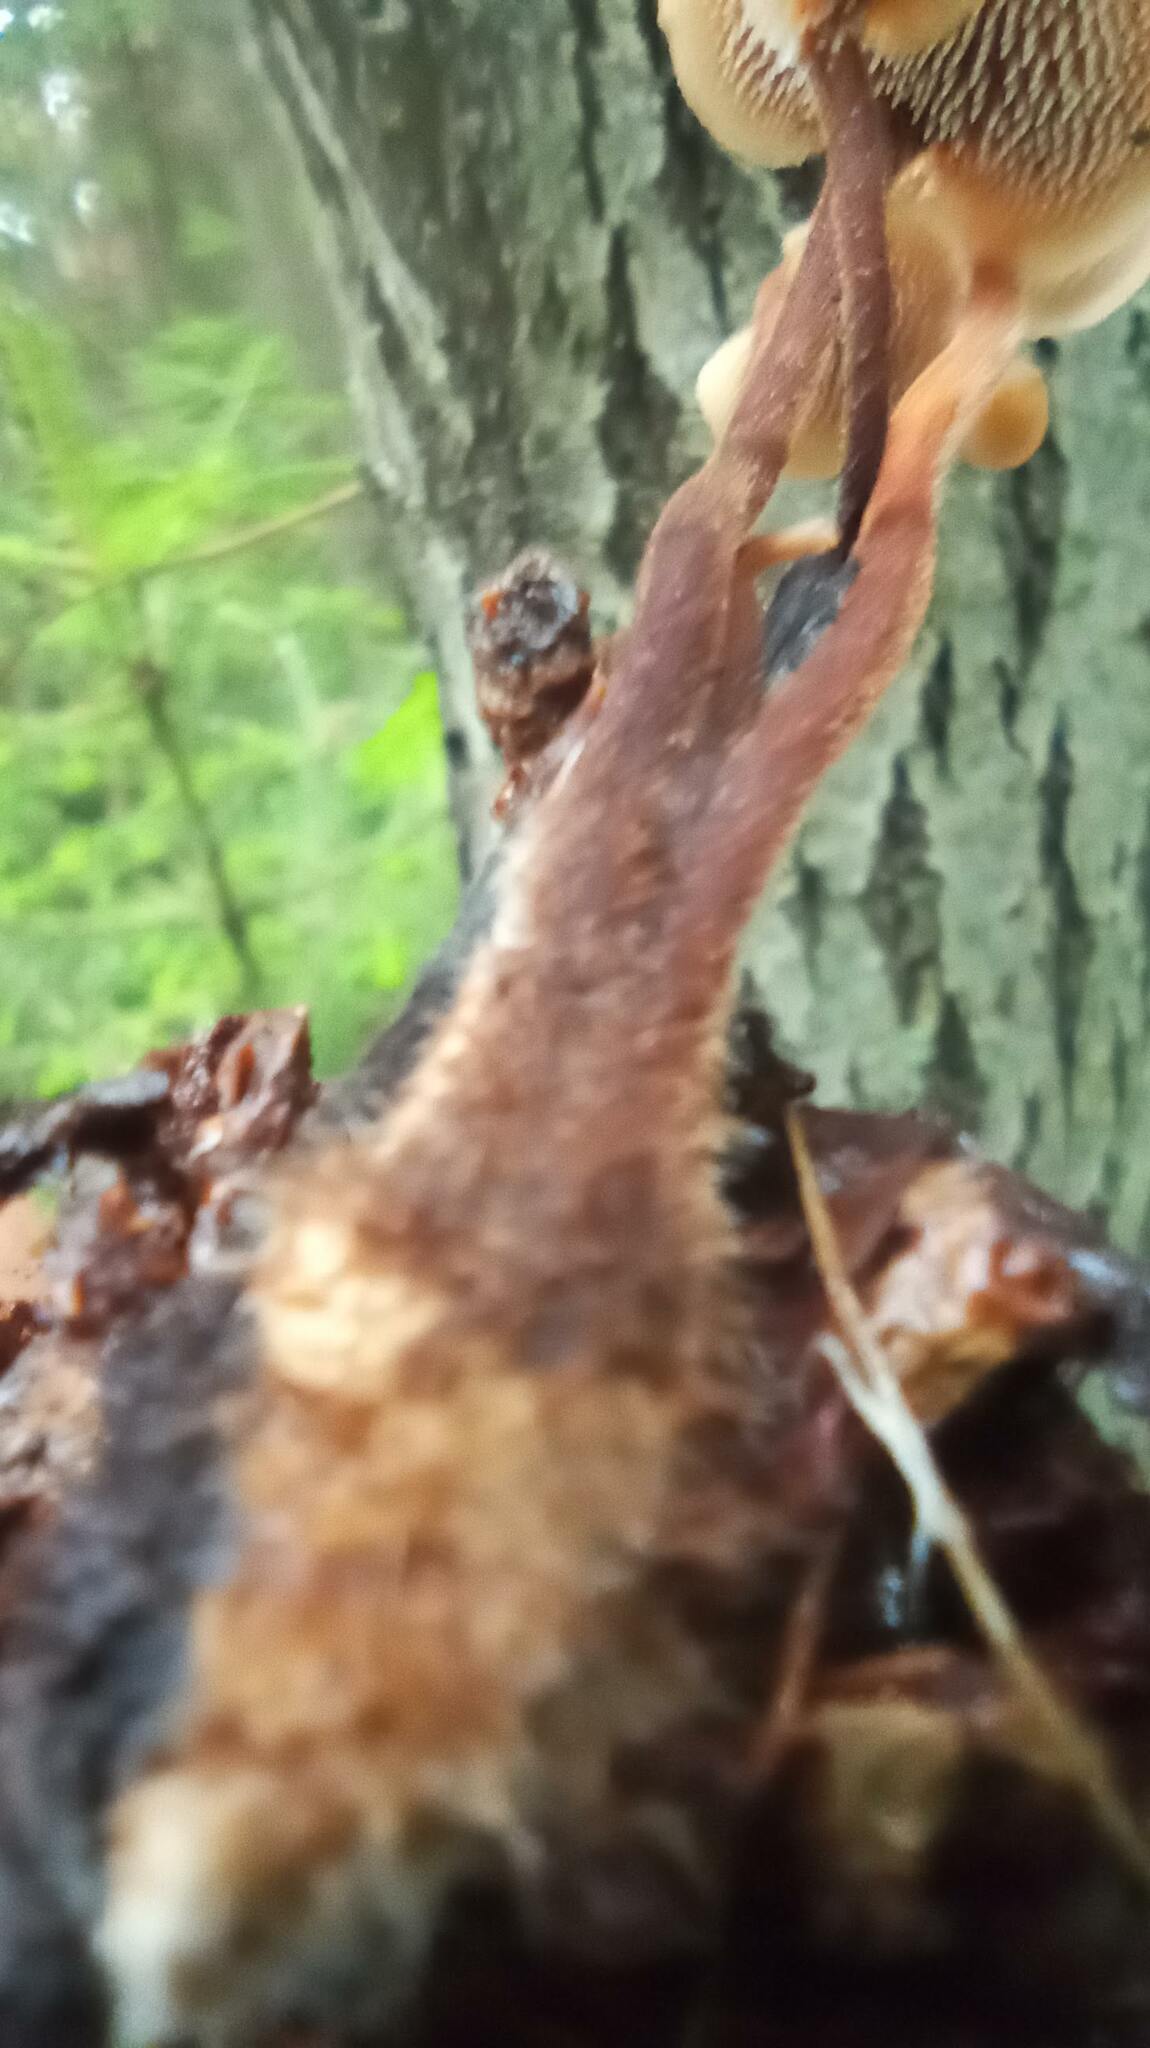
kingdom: Fungi
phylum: Basidiomycota
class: Agaricomycetes
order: Russulales
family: Auriscalpiaceae
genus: Auriscalpium
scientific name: Auriscalpium vulgare
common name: Earpick fungus
